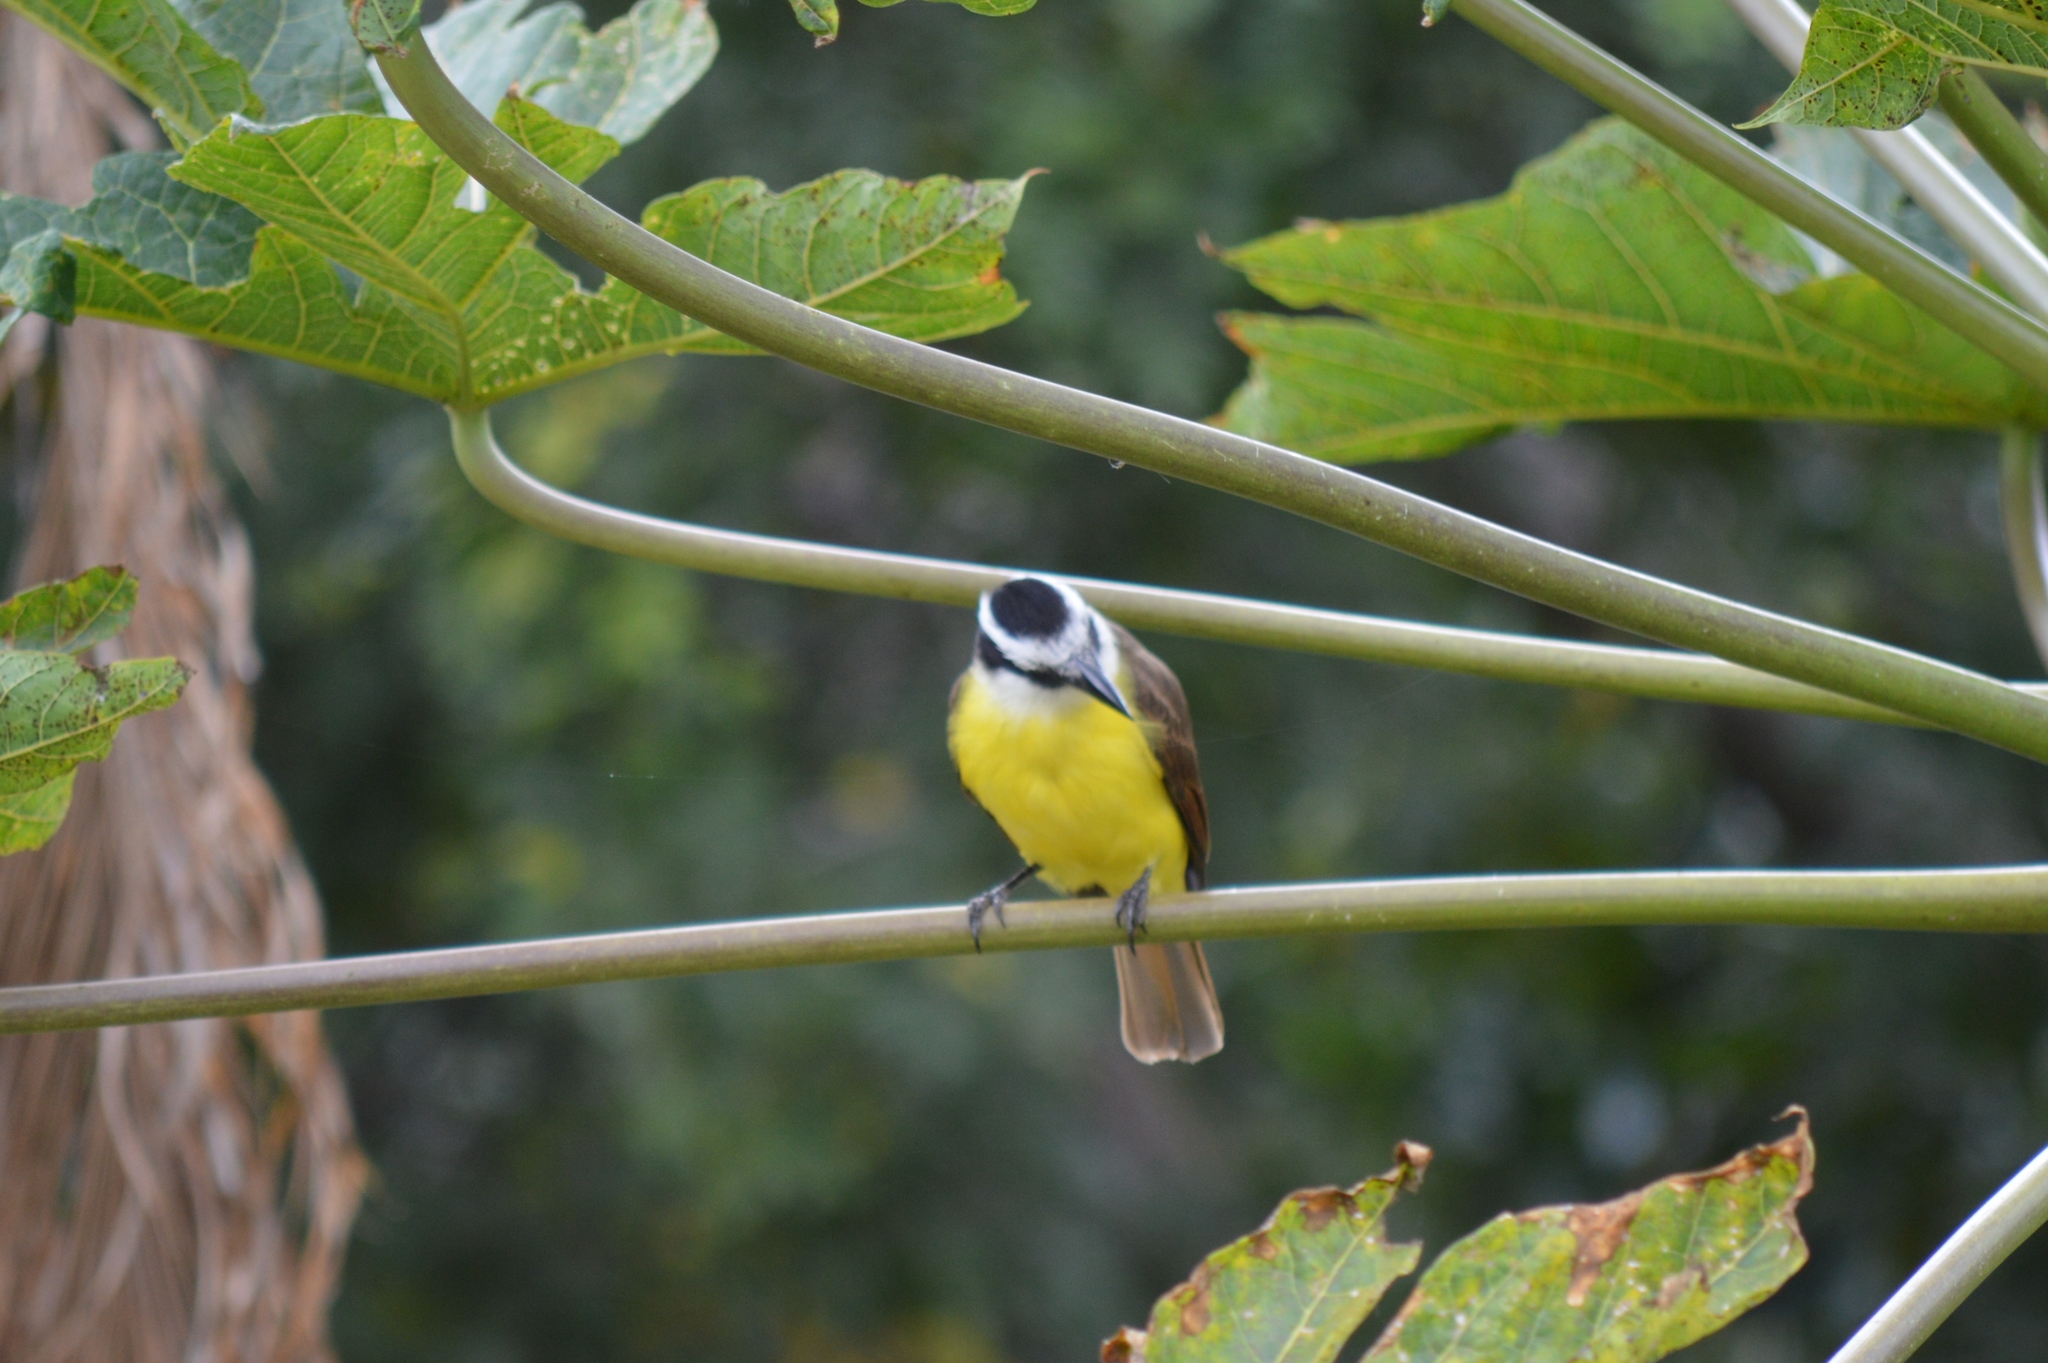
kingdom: Animalia
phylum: Chordata
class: Aves
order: Passeriformes
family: Tyrannidae
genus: Pitangus
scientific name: Pitangus sulphuratus
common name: Great kiskadee
